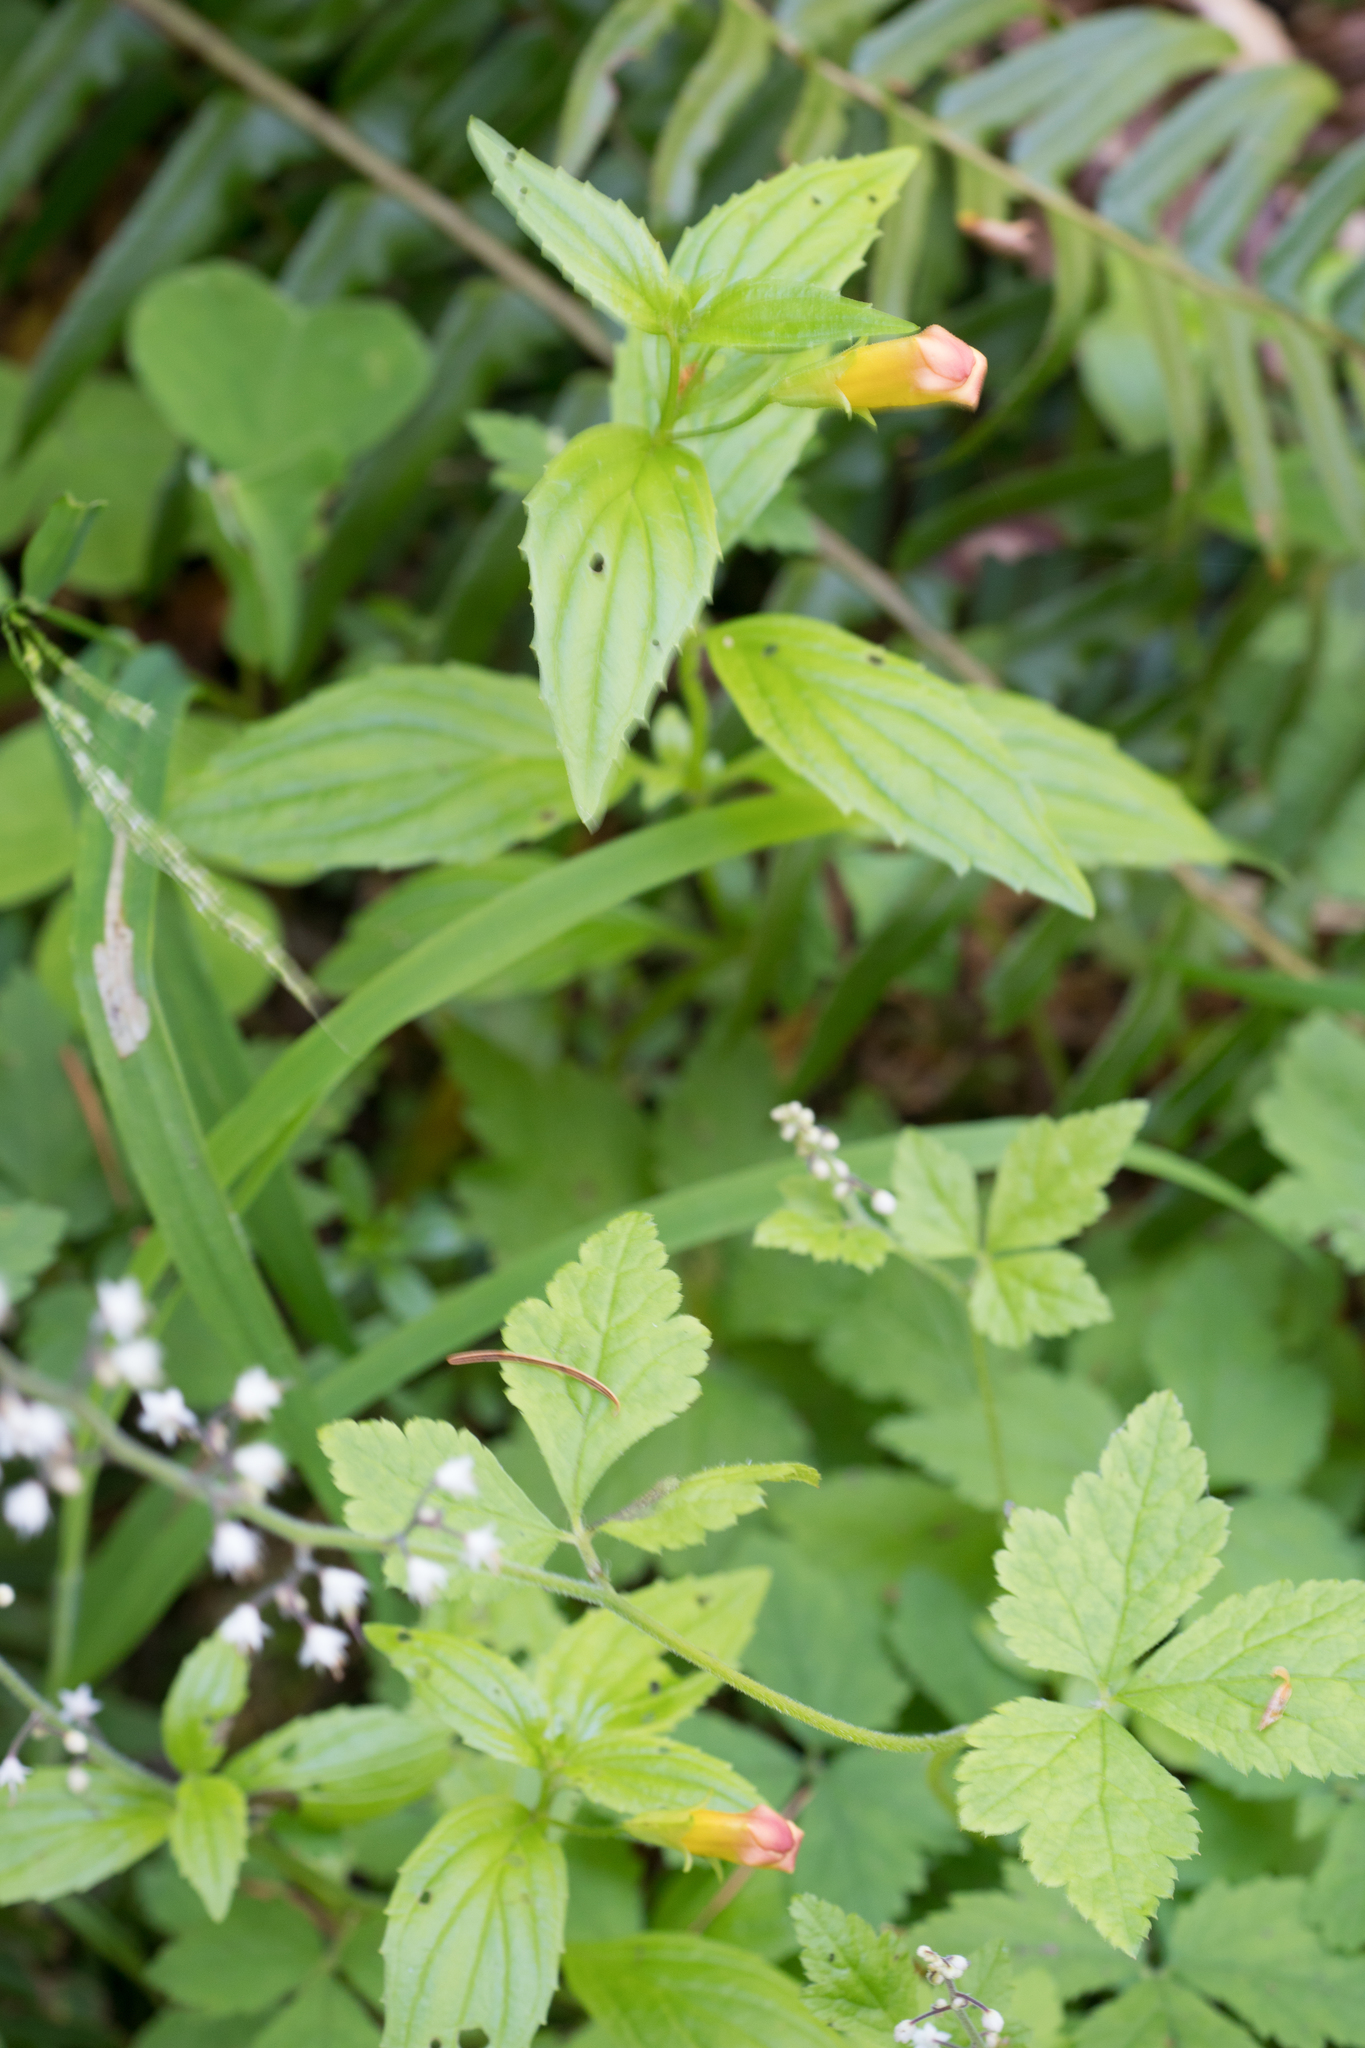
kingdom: Plantae
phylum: Tracheophyta
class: Magnoliopsida
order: Lamiales
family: Phrymaceae
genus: Erythranthe
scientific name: Erythranthe dentata
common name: Coastal monkeyflower
